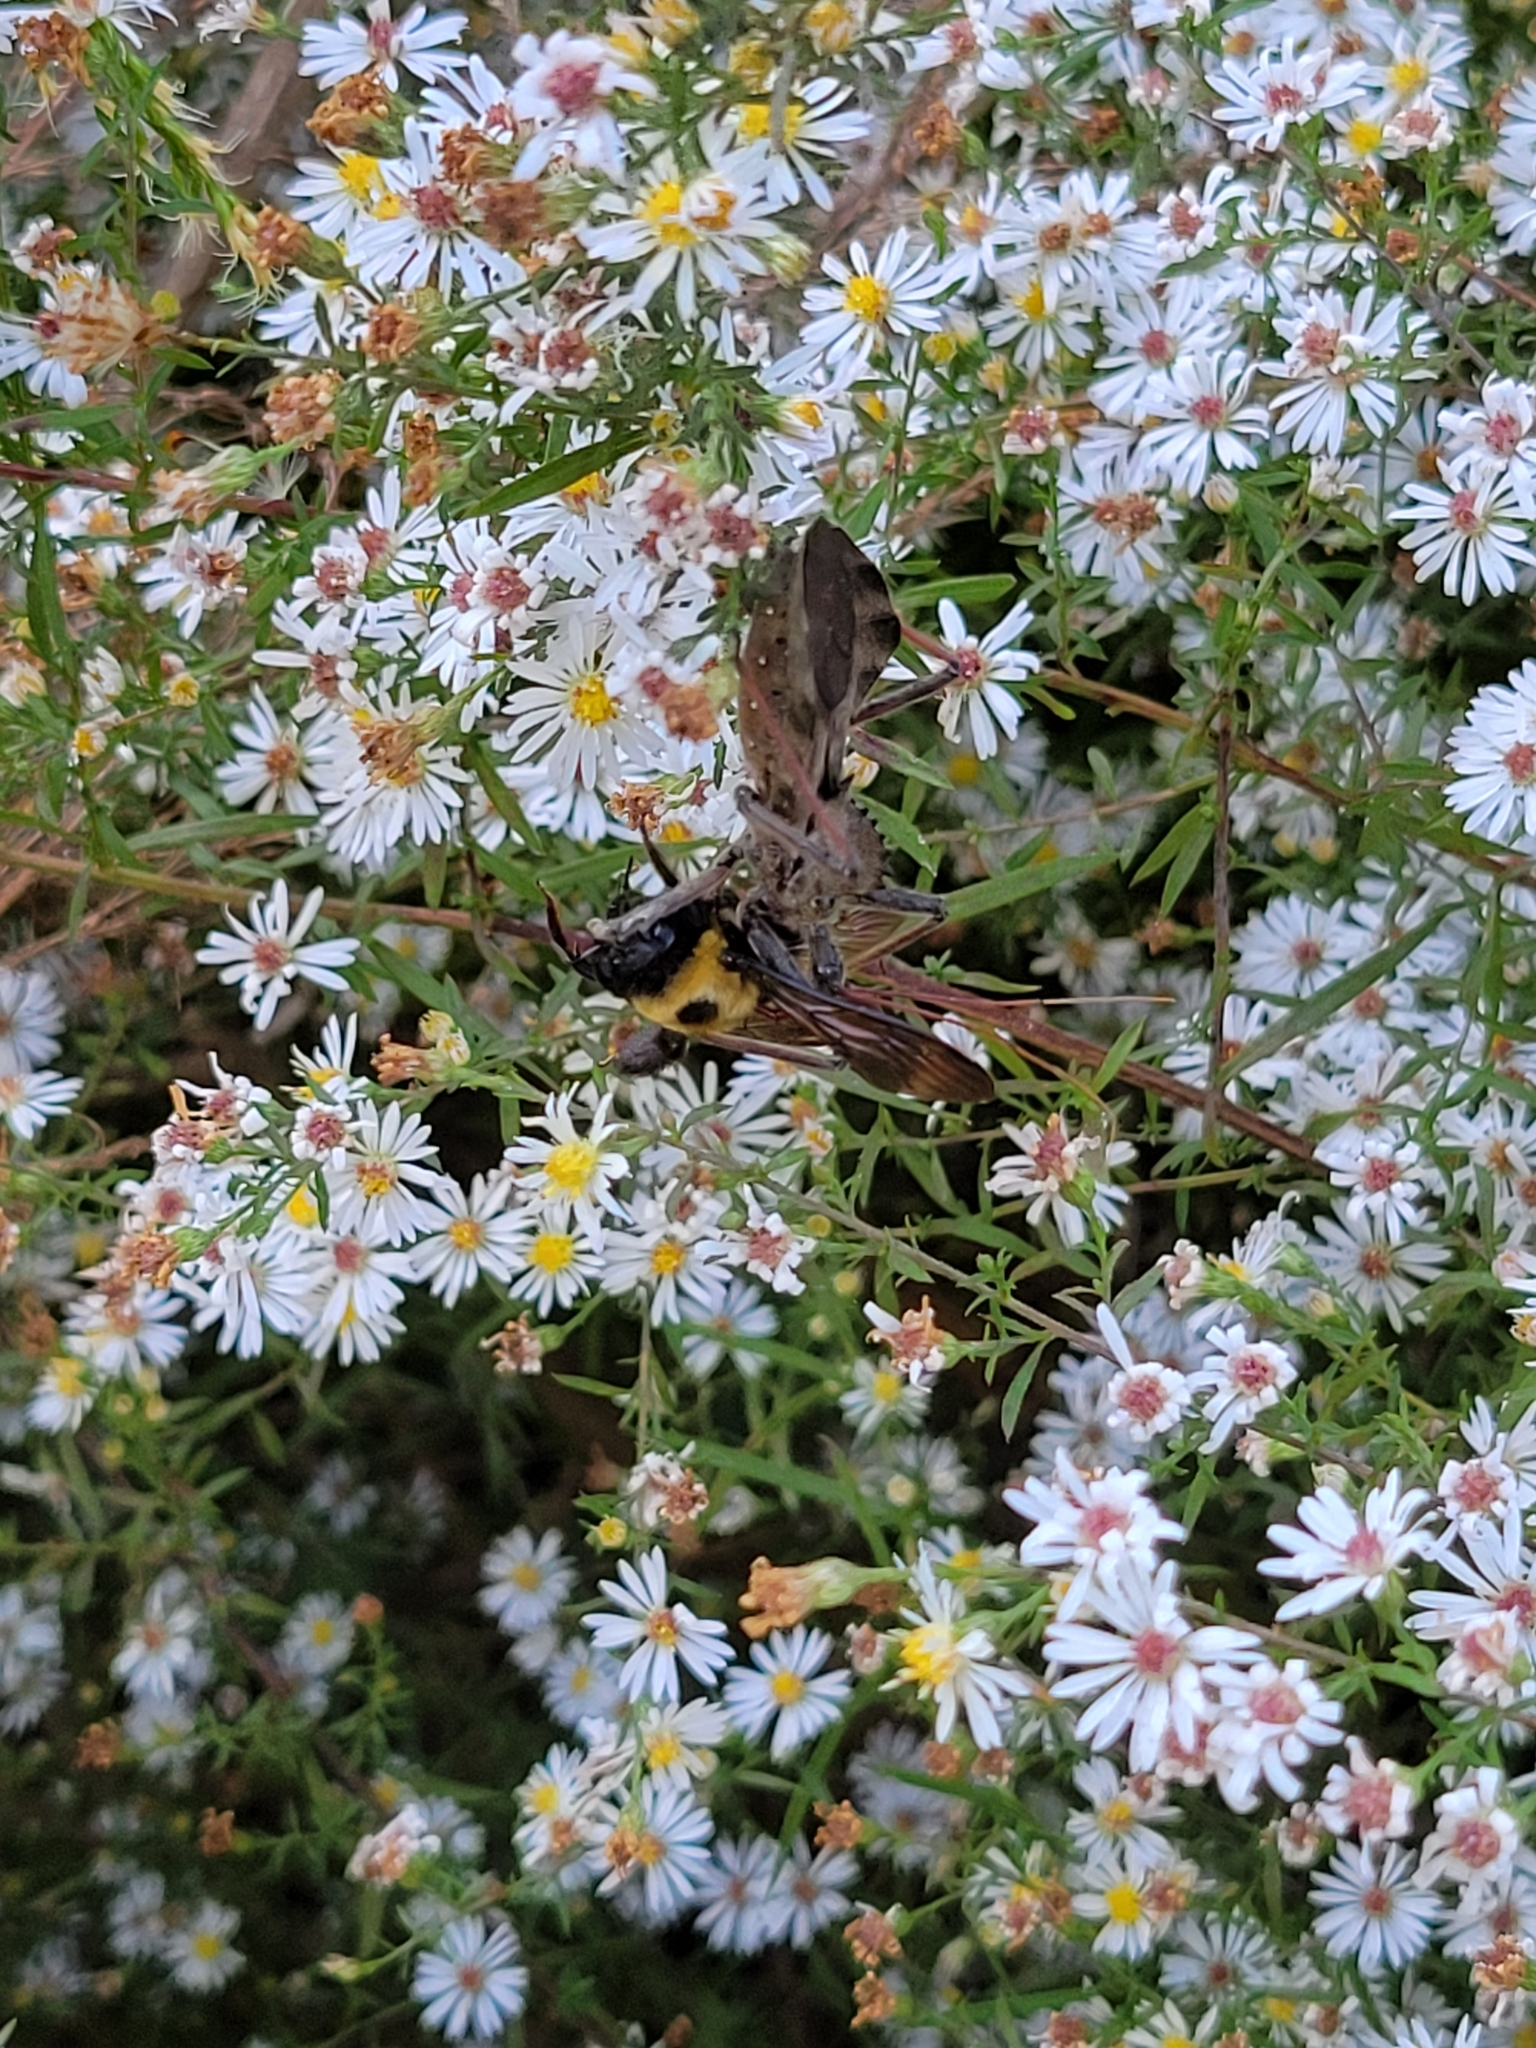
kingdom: Animalia
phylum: Arthropoda
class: Insecta
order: Hemiptera
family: Reduviidae
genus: Arilus
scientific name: Arilus cristatus
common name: North american wheel bug
